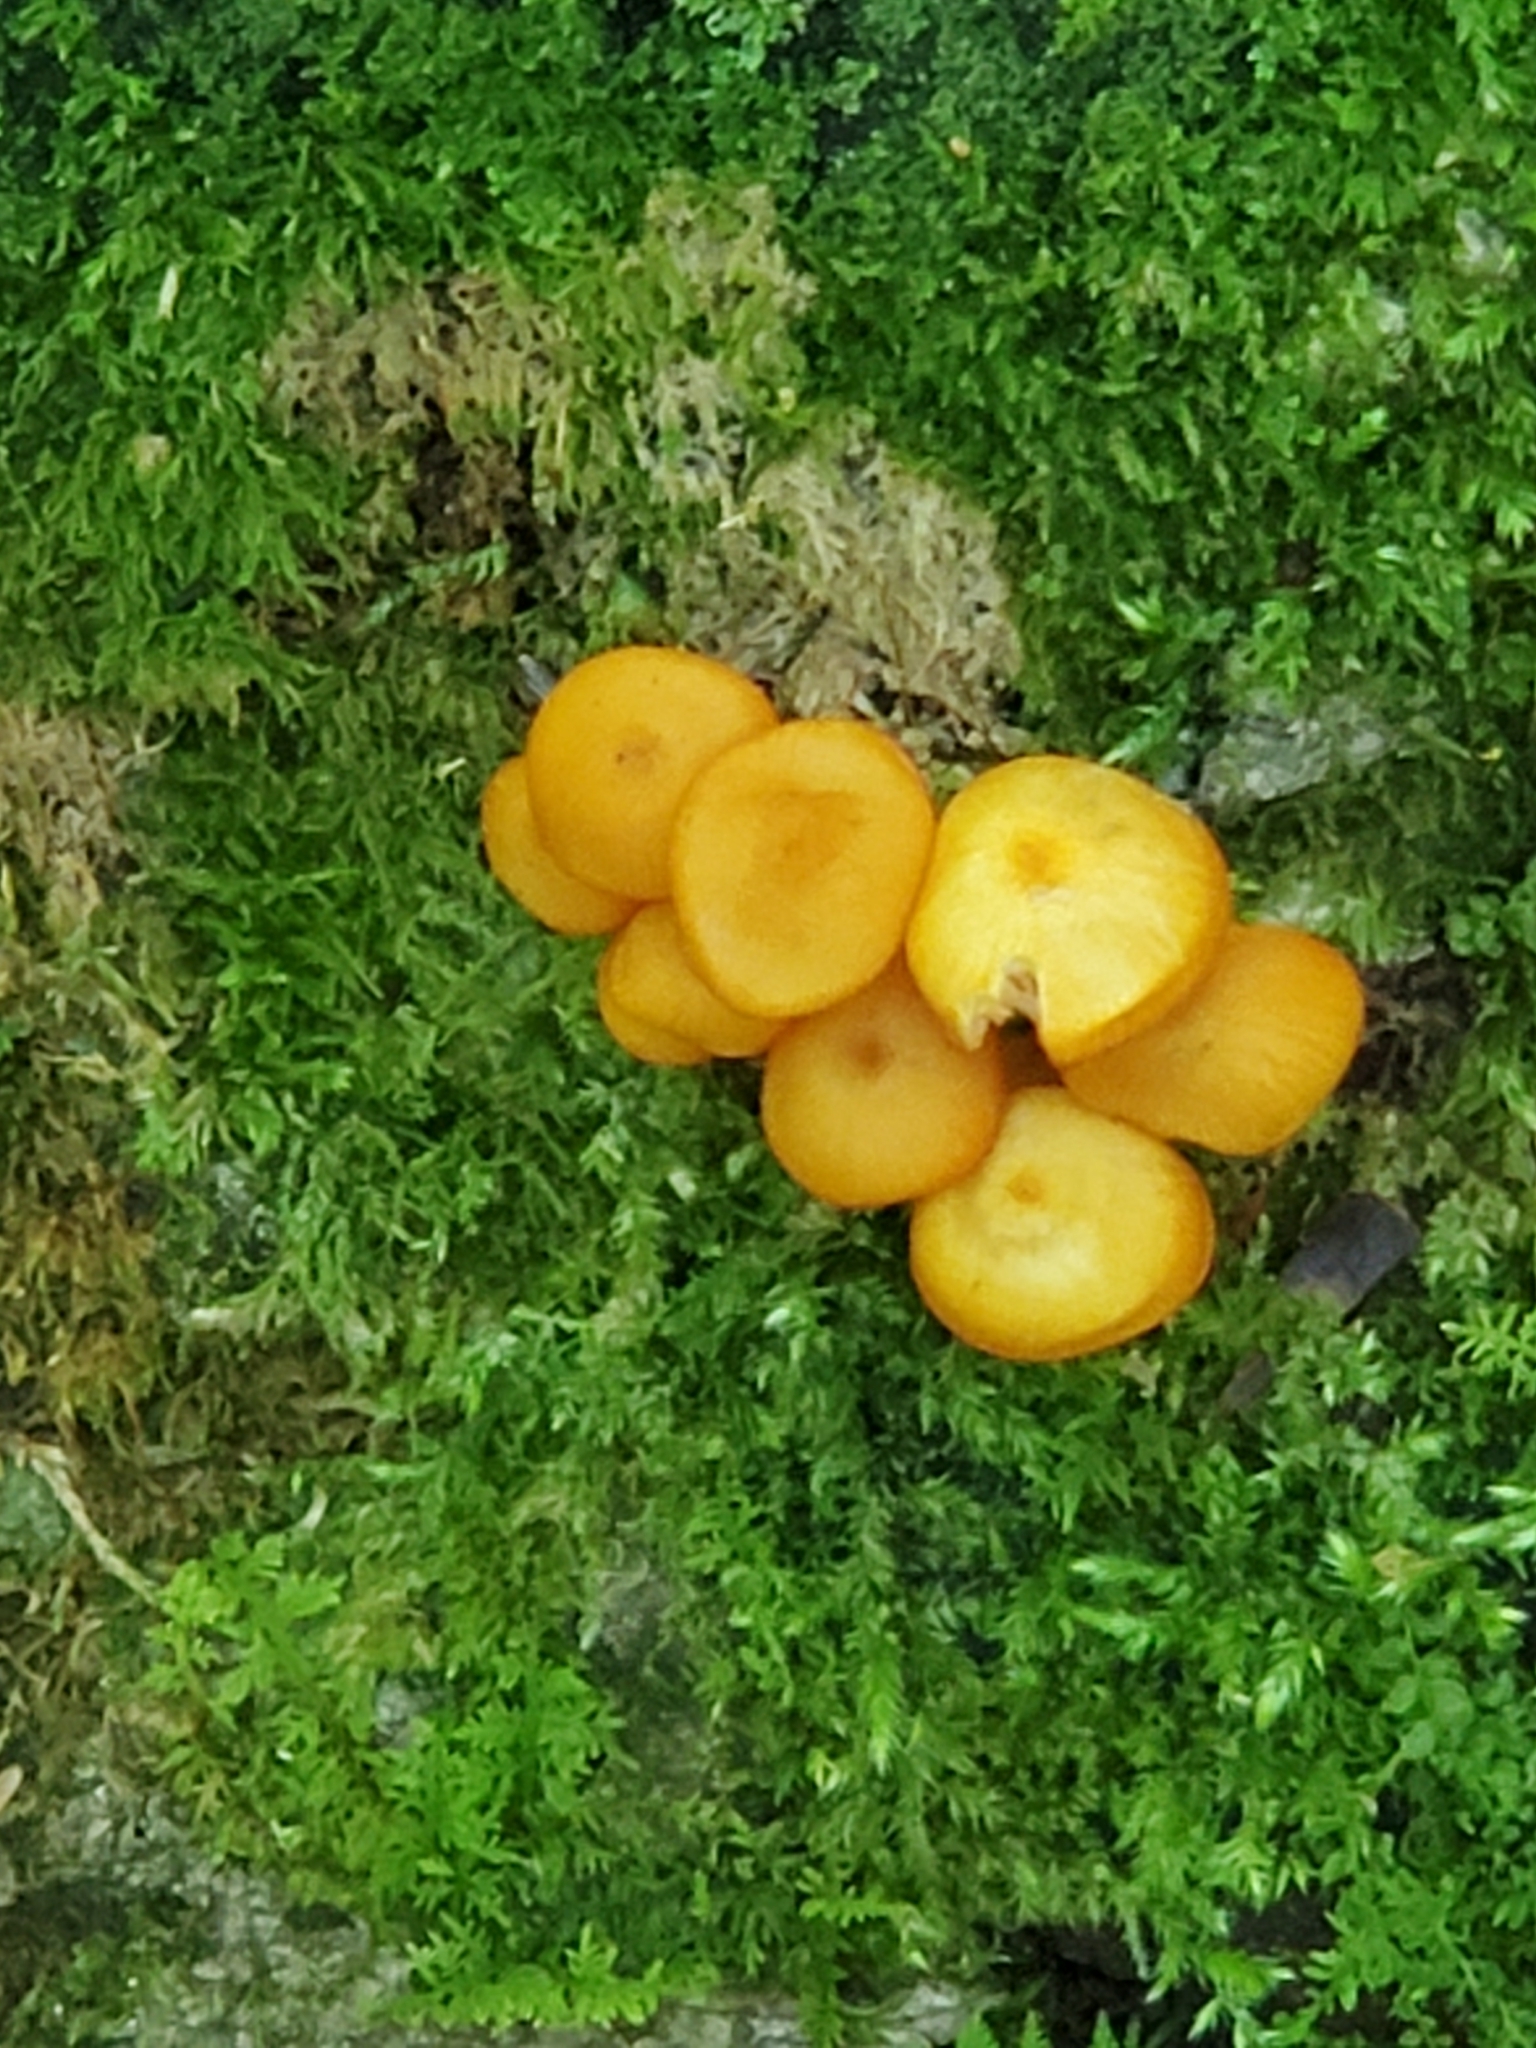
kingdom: Fungi
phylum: Basidiomycota
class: Agaricomycetes
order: Agaricales
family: Mycenaceae
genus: Mycena
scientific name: Mycena leaiana
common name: Orange mycena
